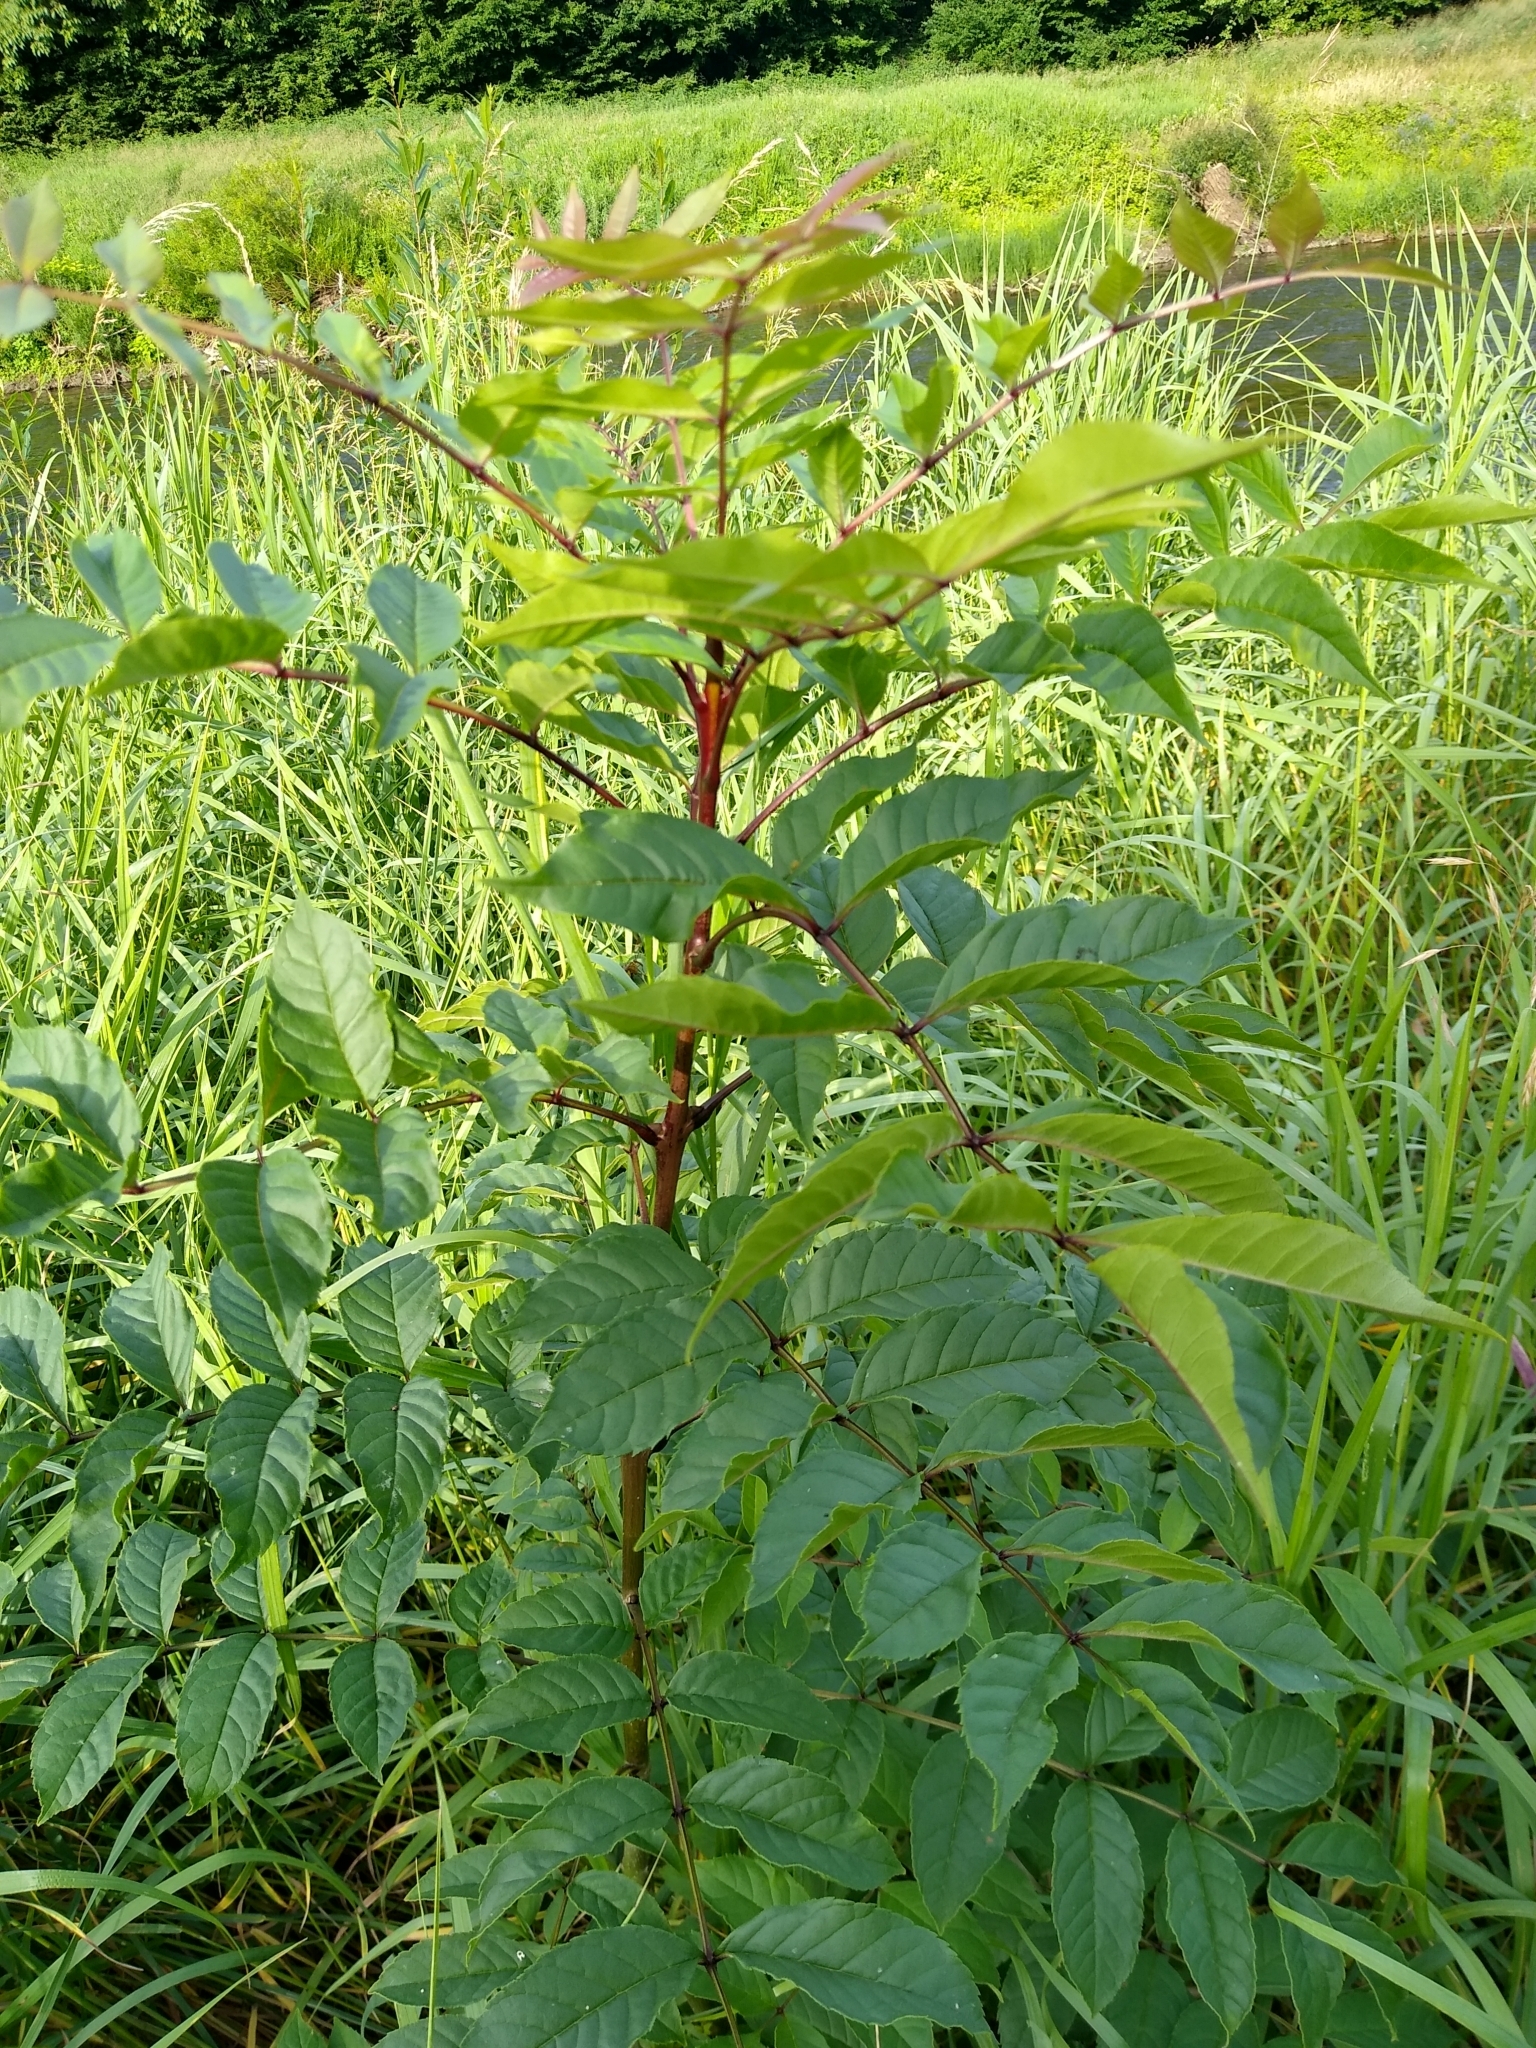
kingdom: Plantae
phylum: Tracheophyta
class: Magnoliopsida
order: Lamiales
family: Oleaceae
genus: Fraxinus
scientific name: Fraxinus excelsior
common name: European ash
